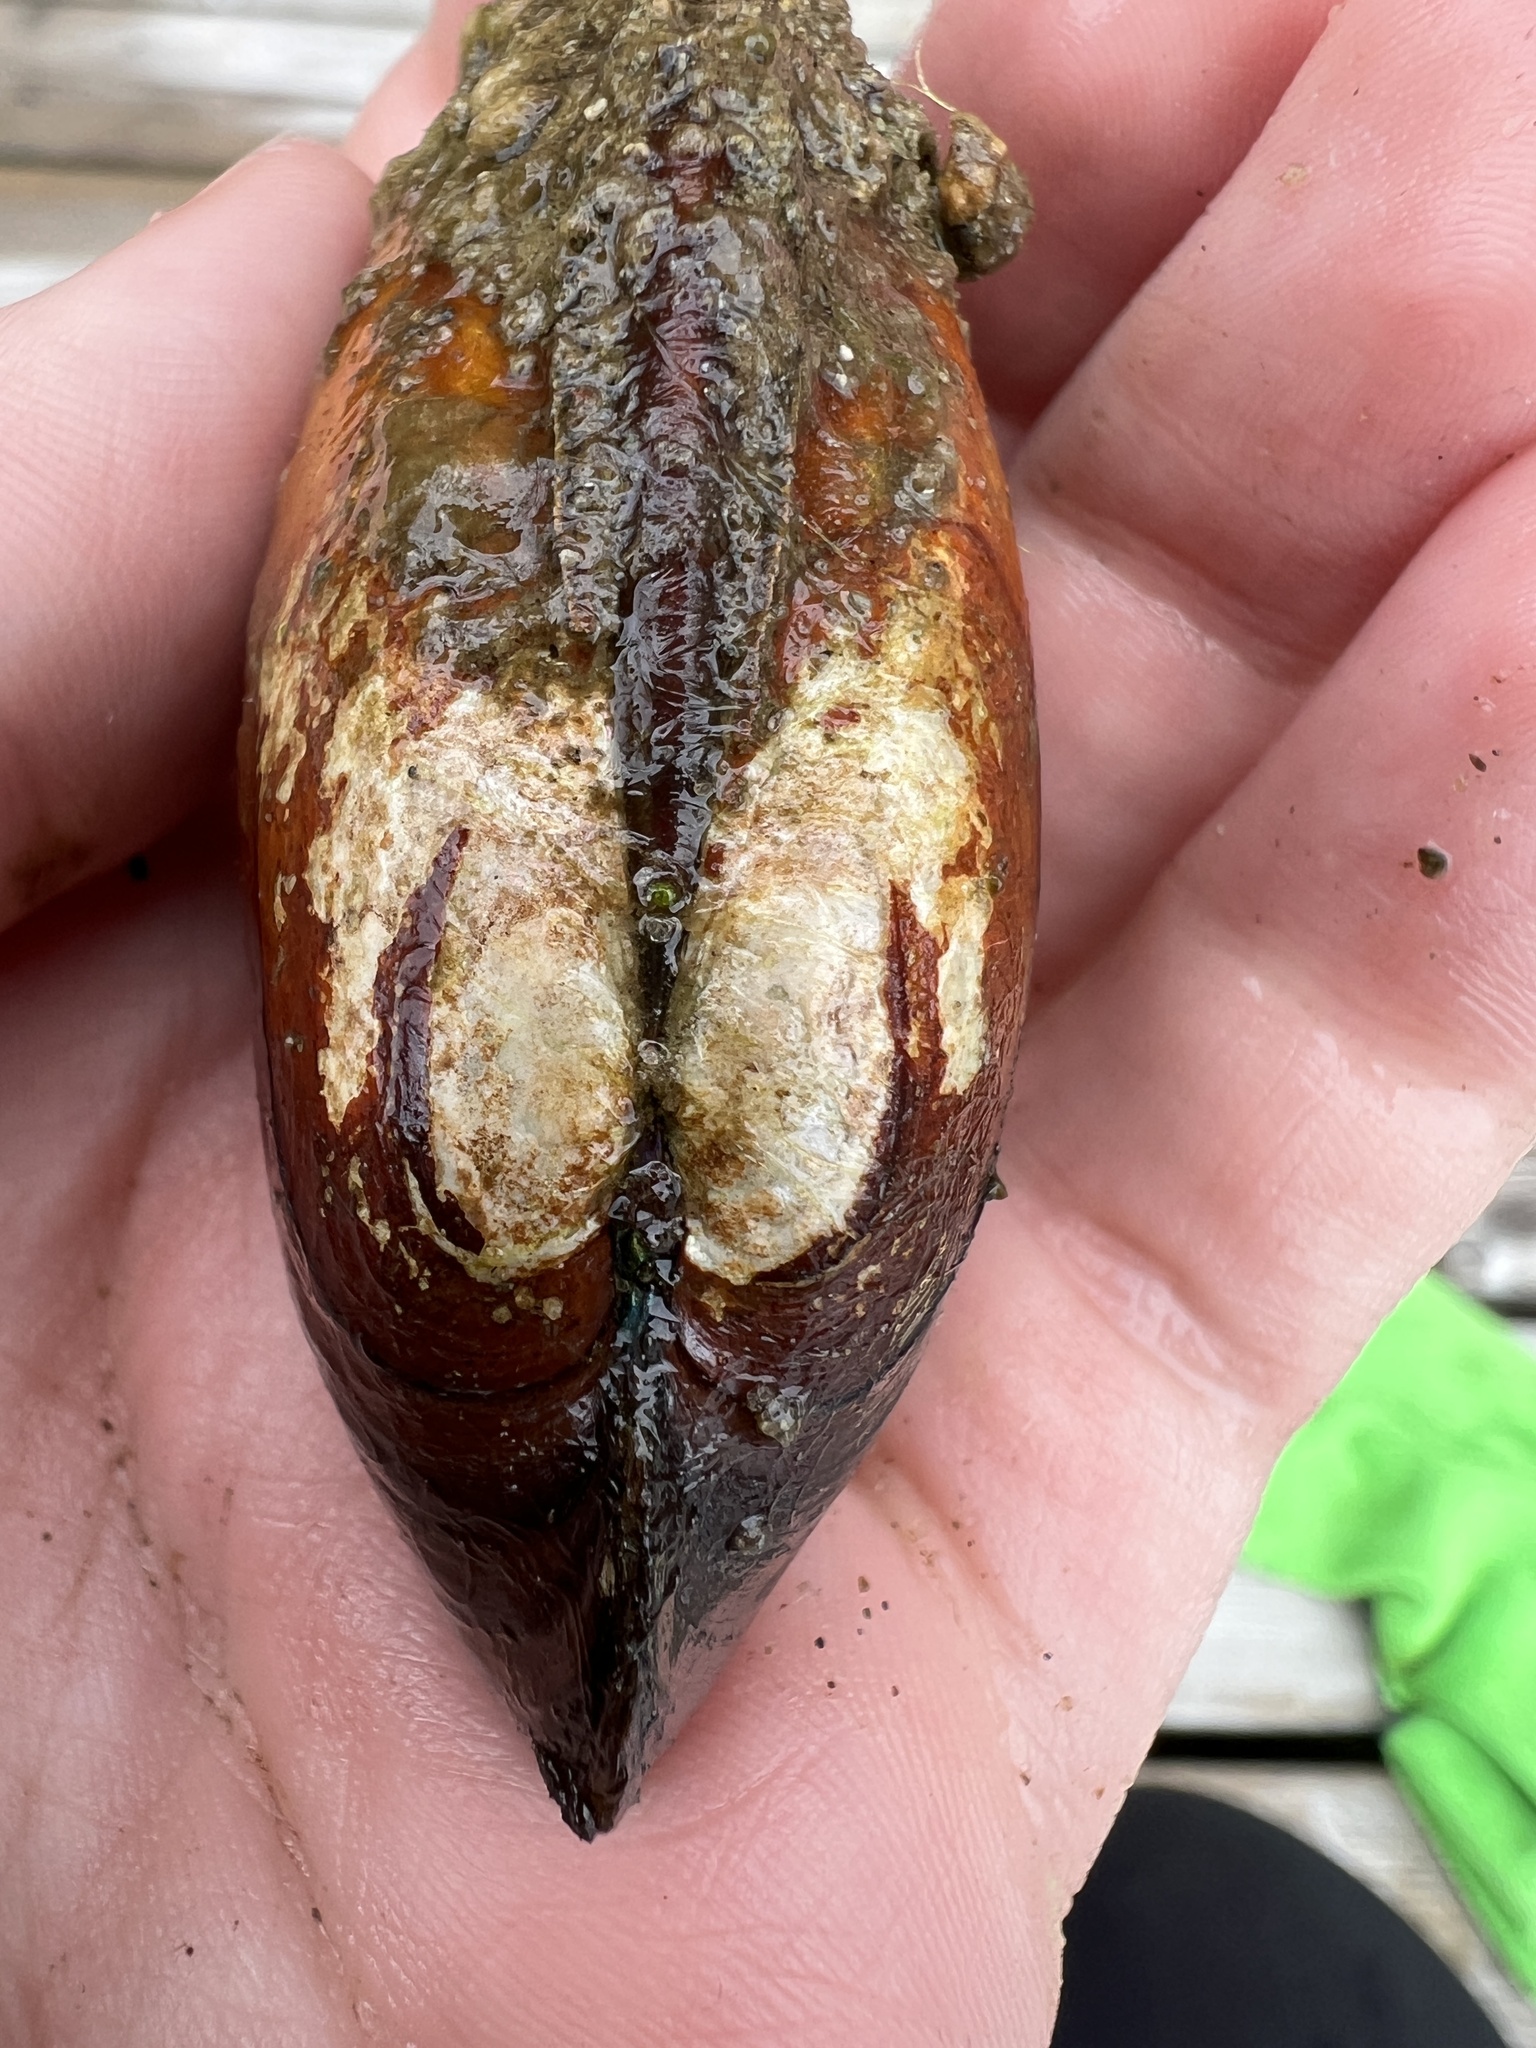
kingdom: Animalia
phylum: Mollusca
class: Bivalvia
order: Unionida
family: Unionidae
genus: Lampsilis
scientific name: Lampsilis siliquoidea
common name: Fatmucket
